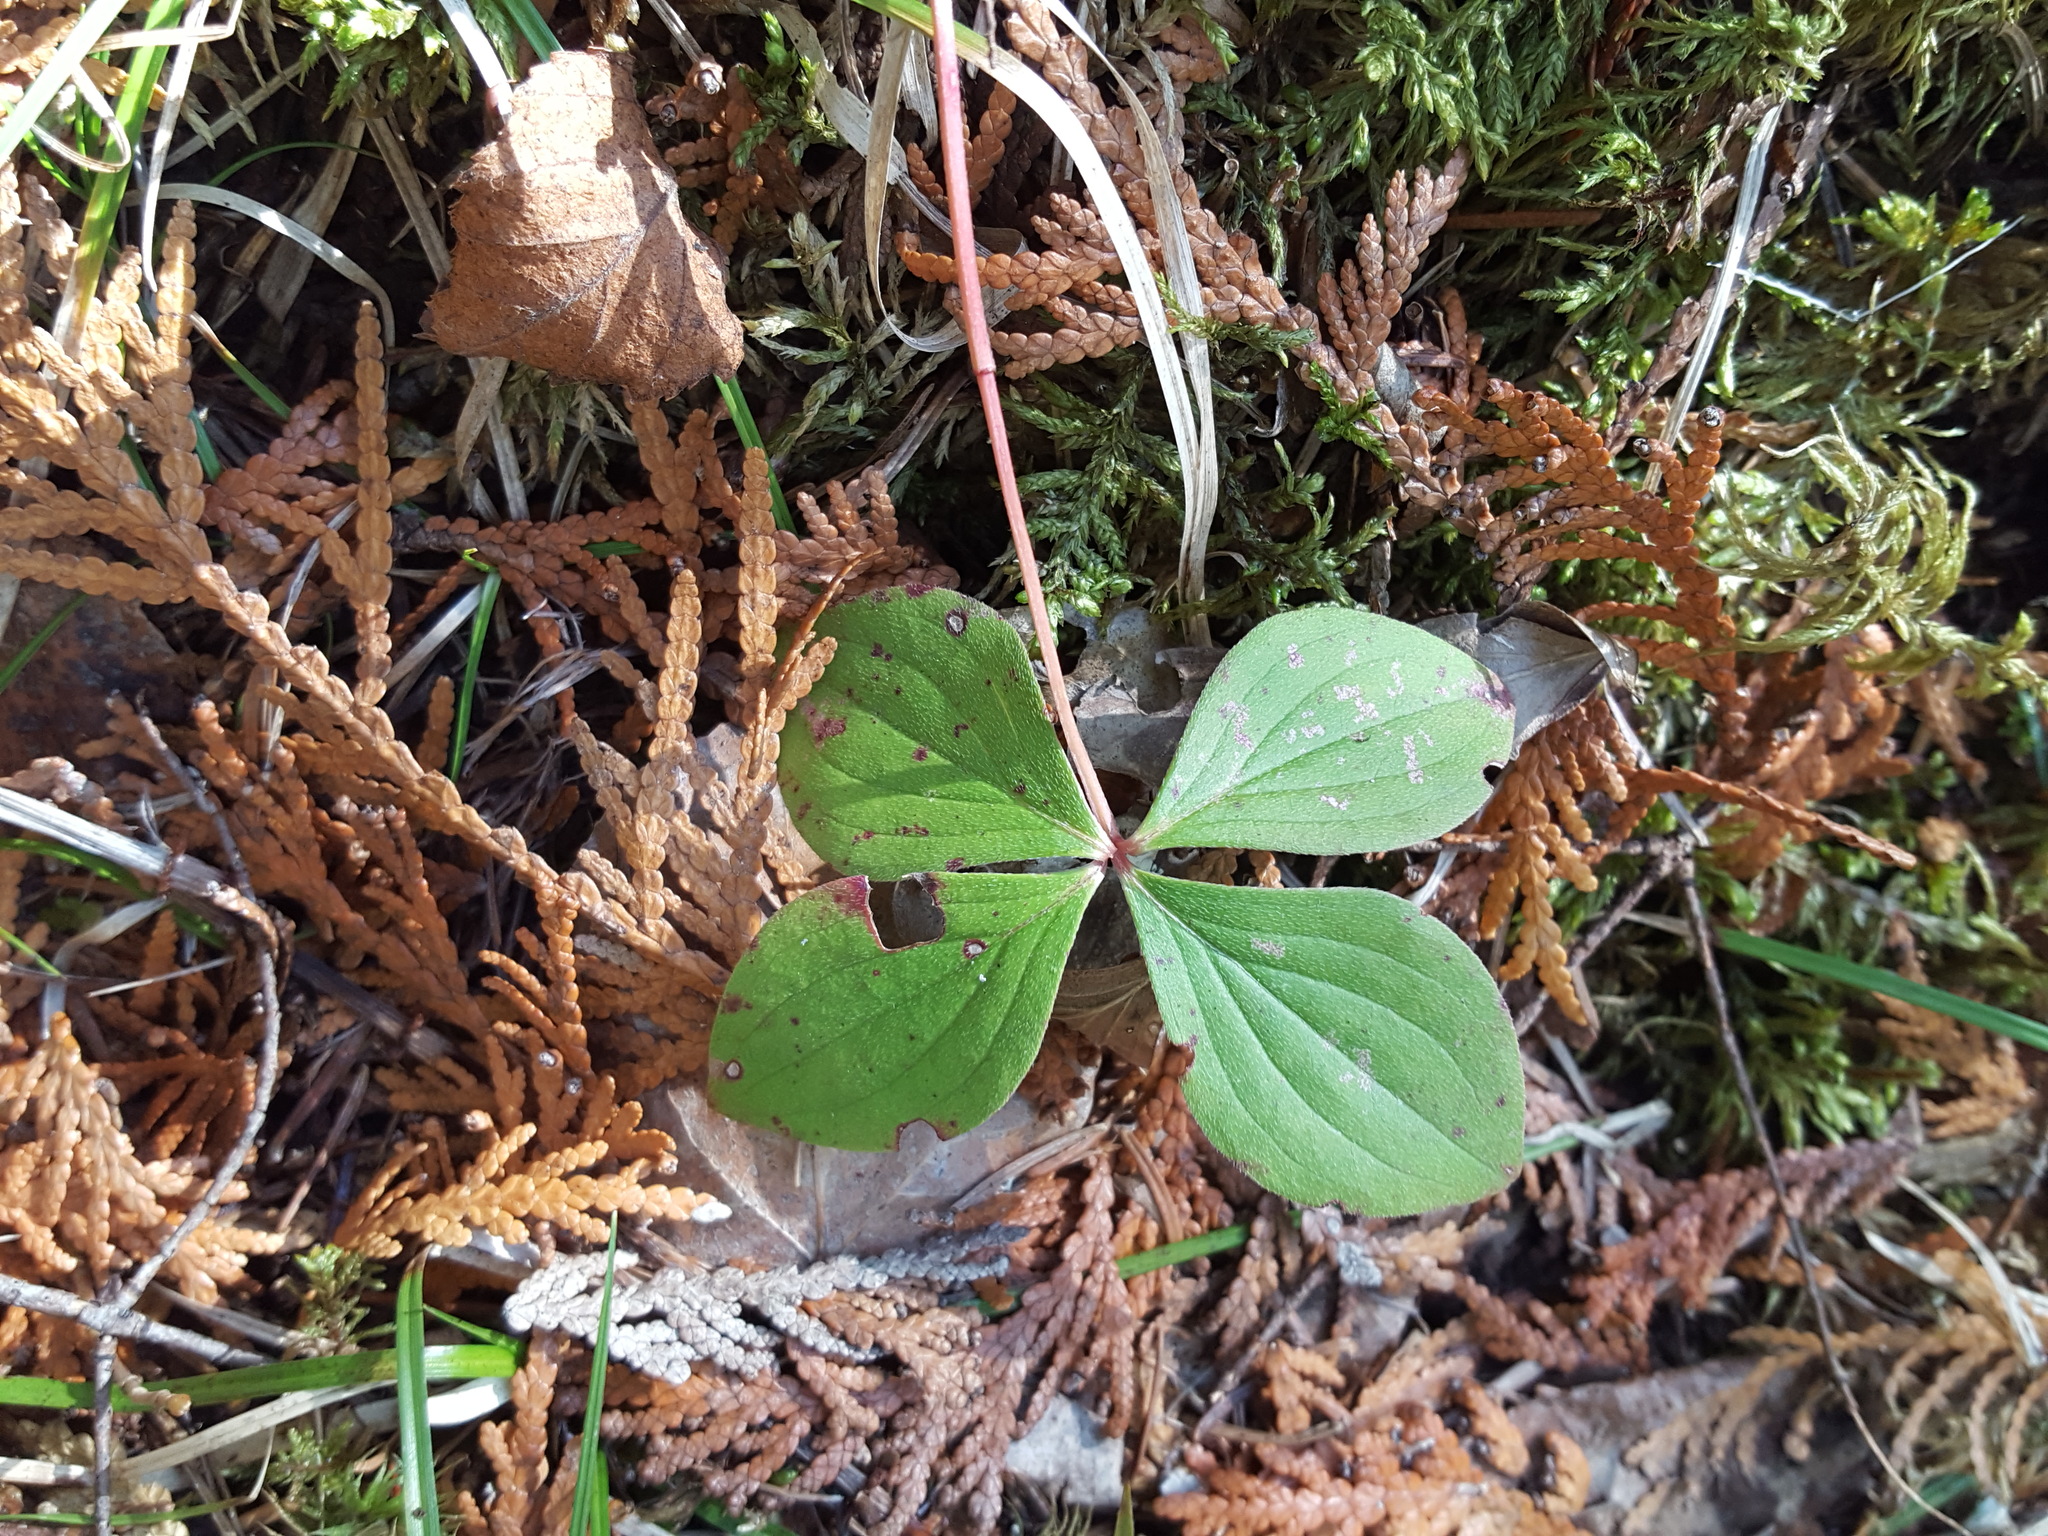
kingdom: Plantae
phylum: Tracheophyta
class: Magnoliopsida
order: Cornales
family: Cornaceae
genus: Cornus
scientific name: Cornus canadensis
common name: Creeping dogwood
